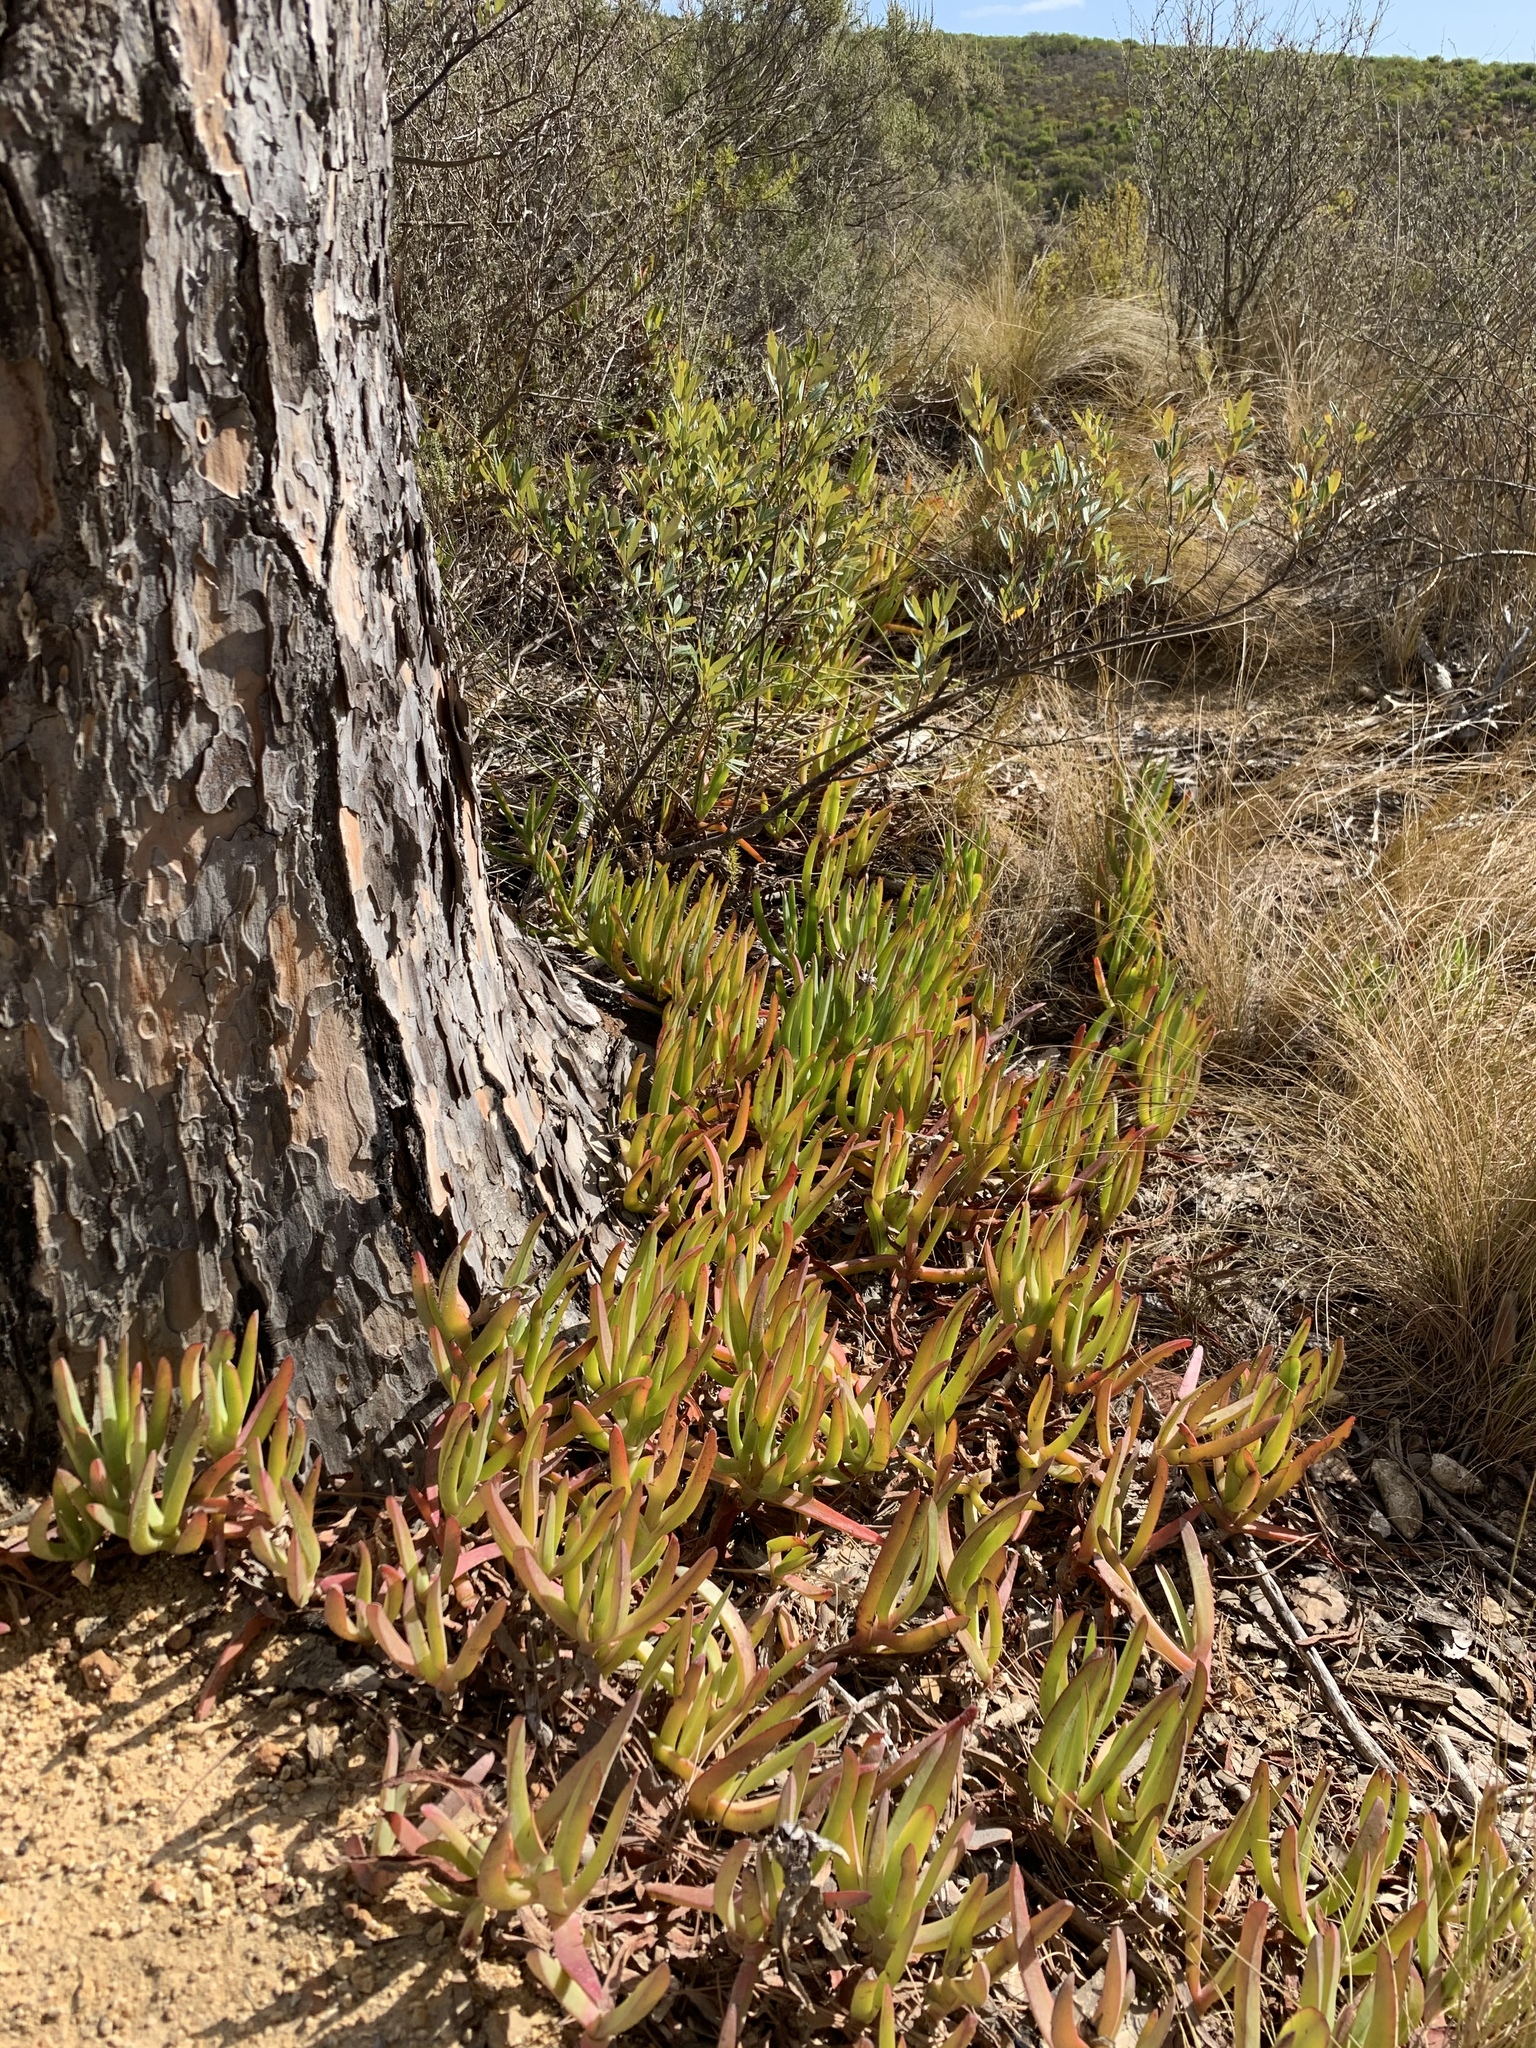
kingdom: Plantae
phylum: Tracheophyta
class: Magnoliopsida
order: Caryophyllales
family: Aizoaceae
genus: Carpobrotus
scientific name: Carpobrotus edulis
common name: Hottentot-fig
